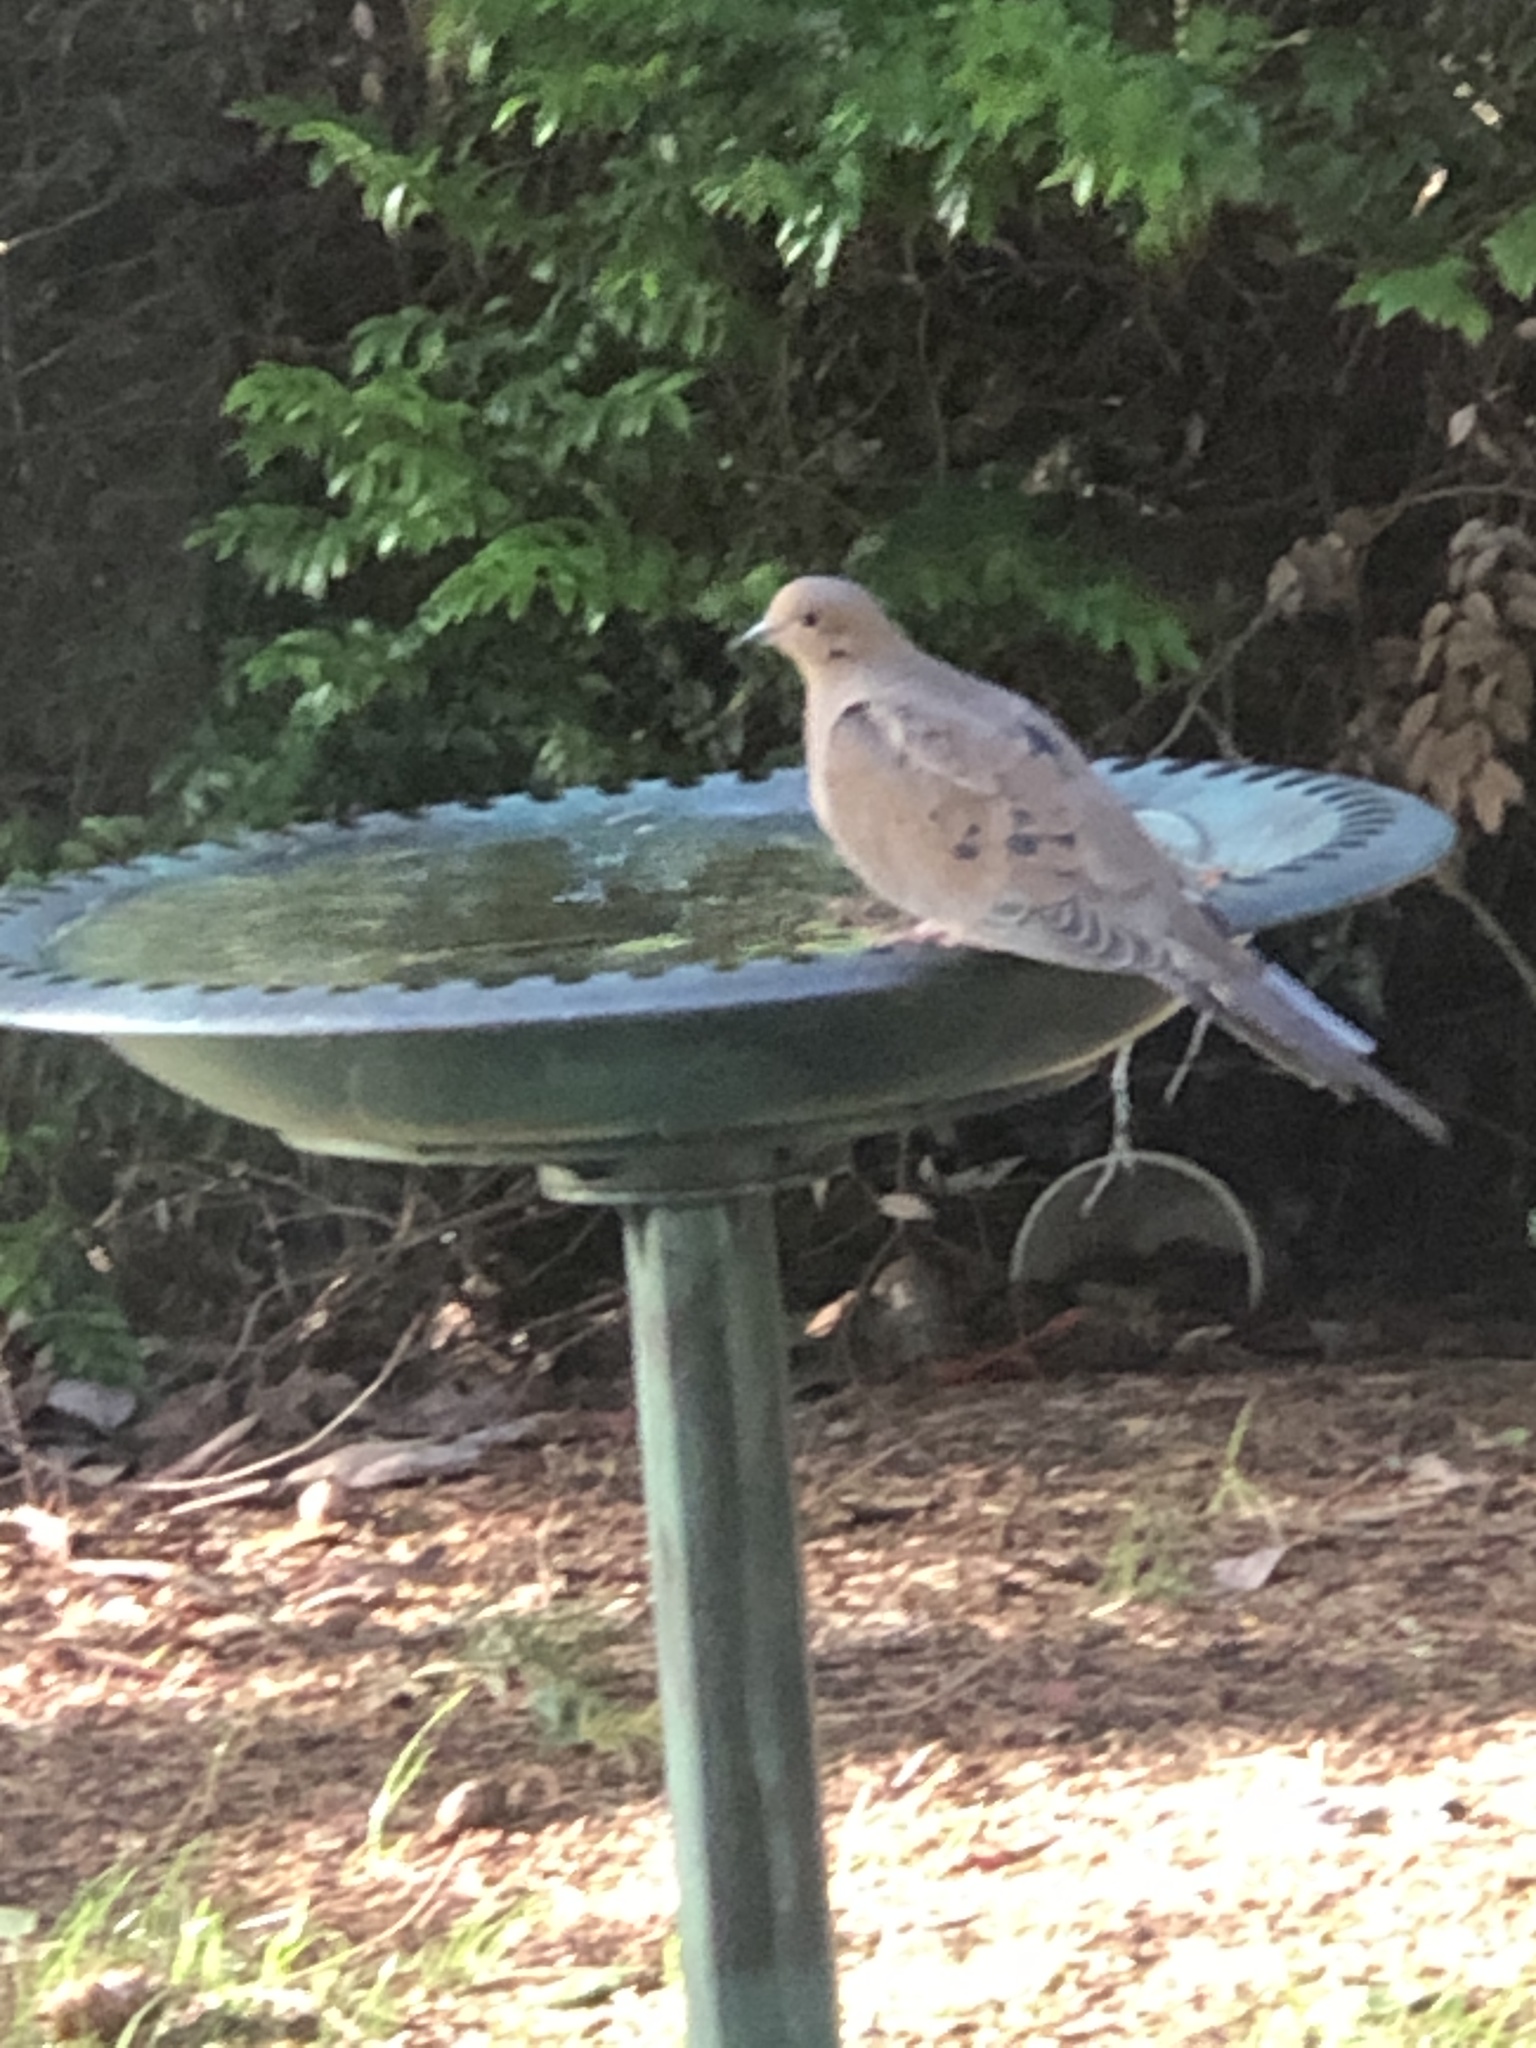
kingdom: Animalia
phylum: Chordata
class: Aves
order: Columbiformes
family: Columbidae
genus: Zenaida
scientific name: Zenaida macroura
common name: Mourning dove
